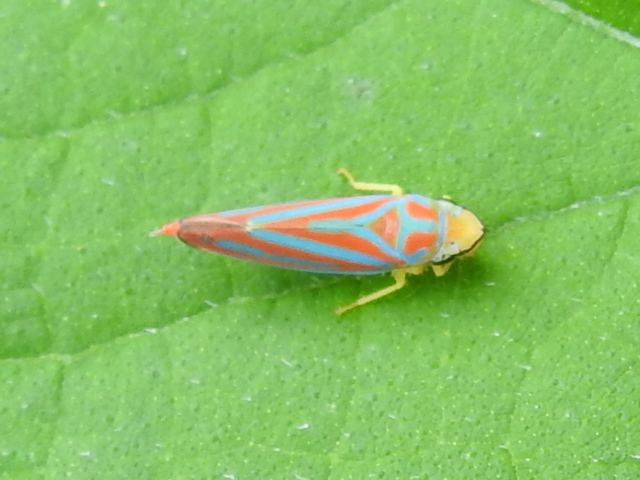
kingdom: Animalia
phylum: Arthropoda
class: Insecta
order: Hemiptera
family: Cicadellidae
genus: Graphocephala
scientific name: Graphocephala coccinea
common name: Candy-striped leafhopper
